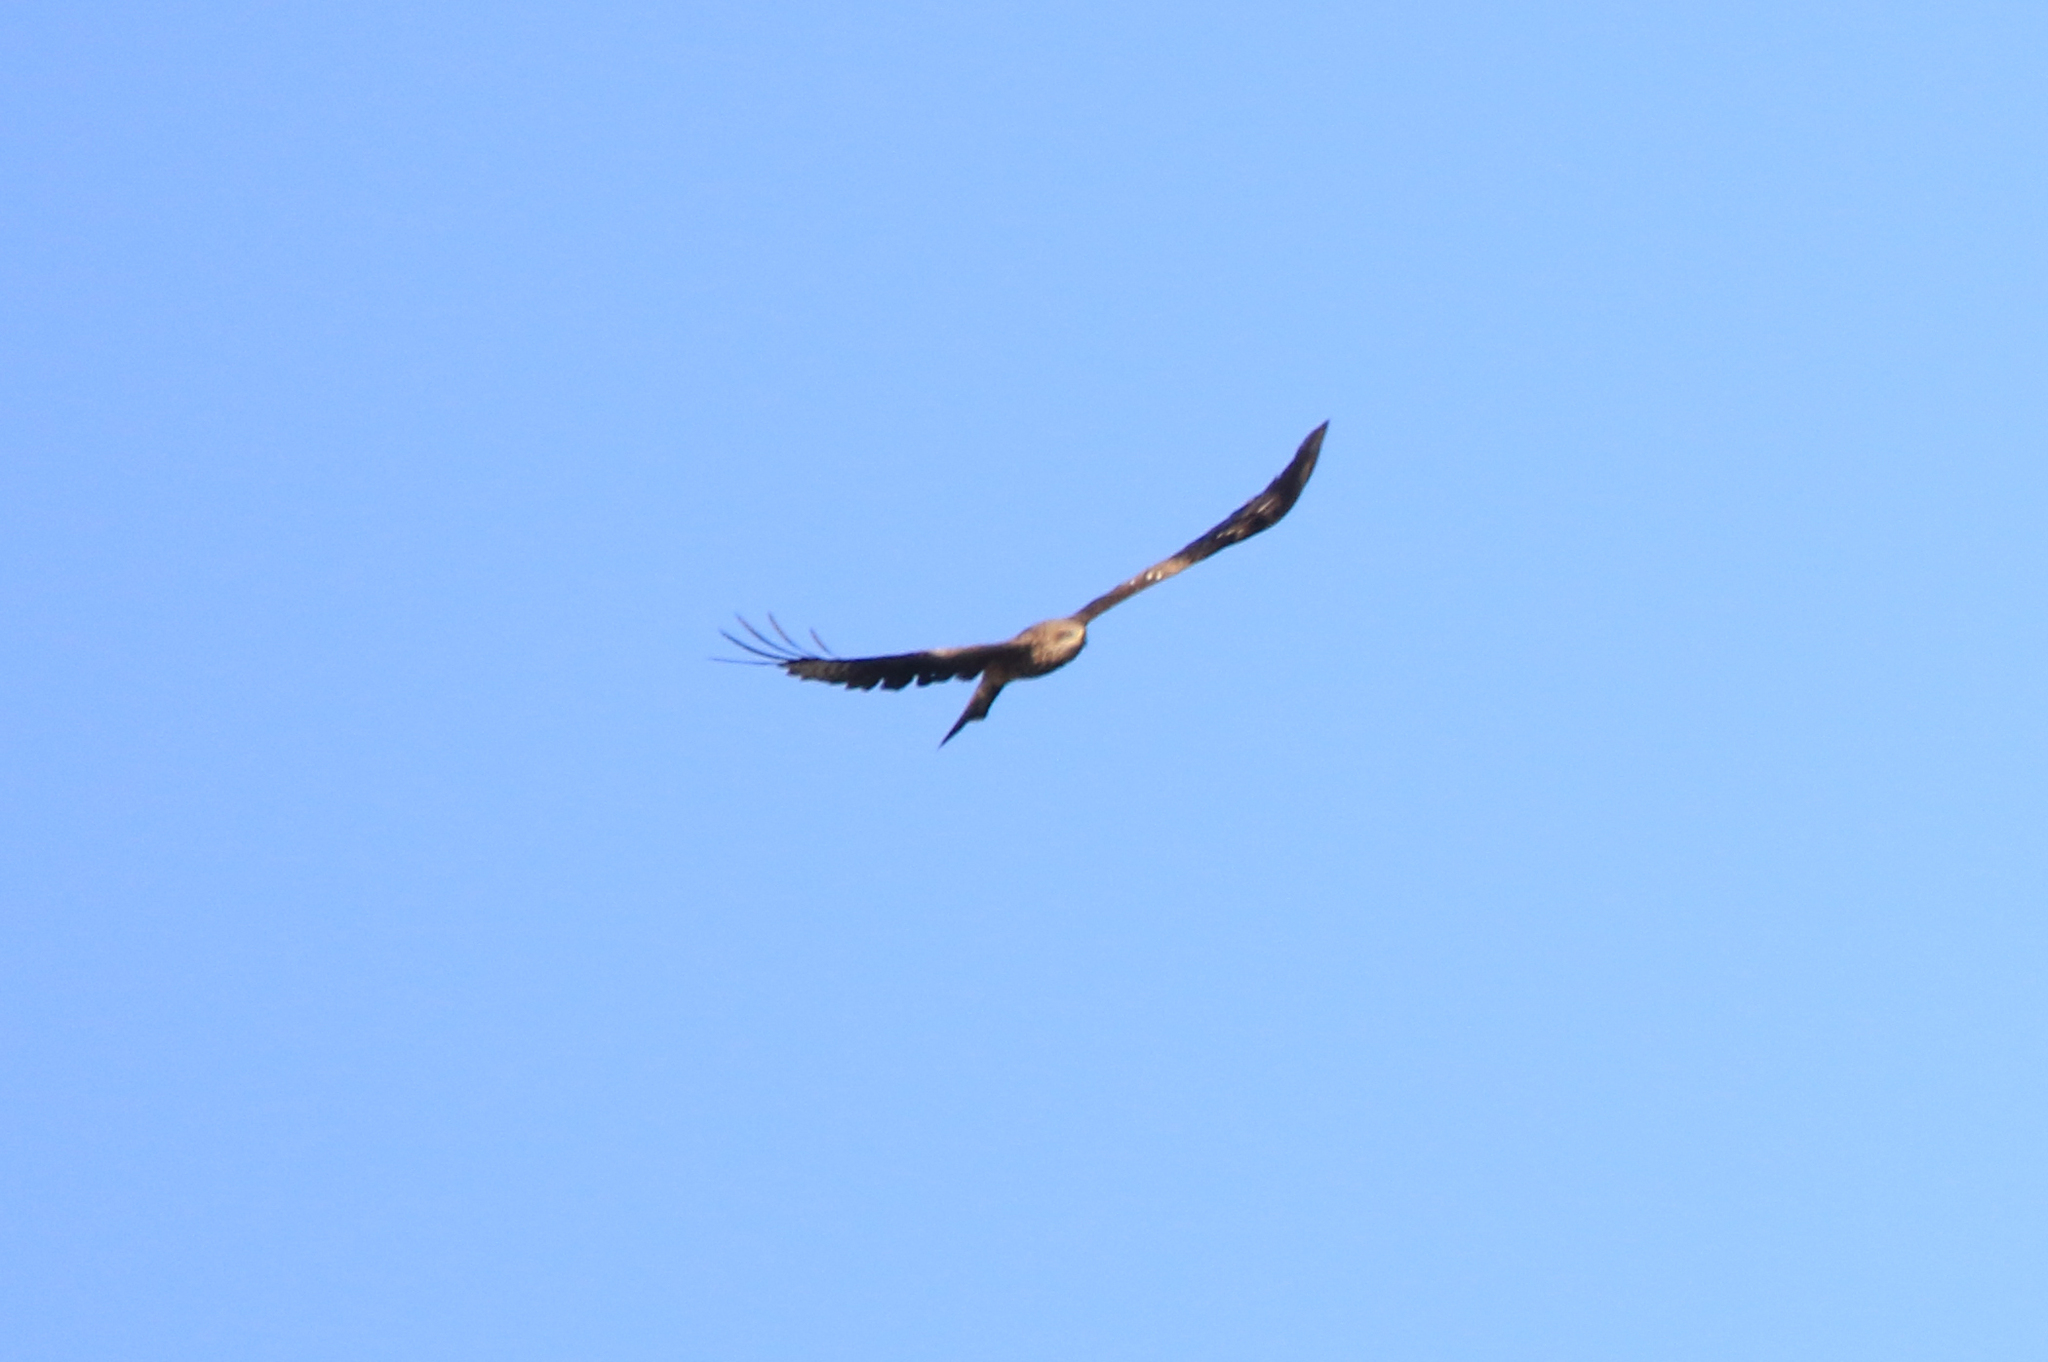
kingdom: Animalia
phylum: Chordata
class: Aves
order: Accipitriformes
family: Accipitridae
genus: Milvus
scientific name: Milvus migrans
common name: Black kite
